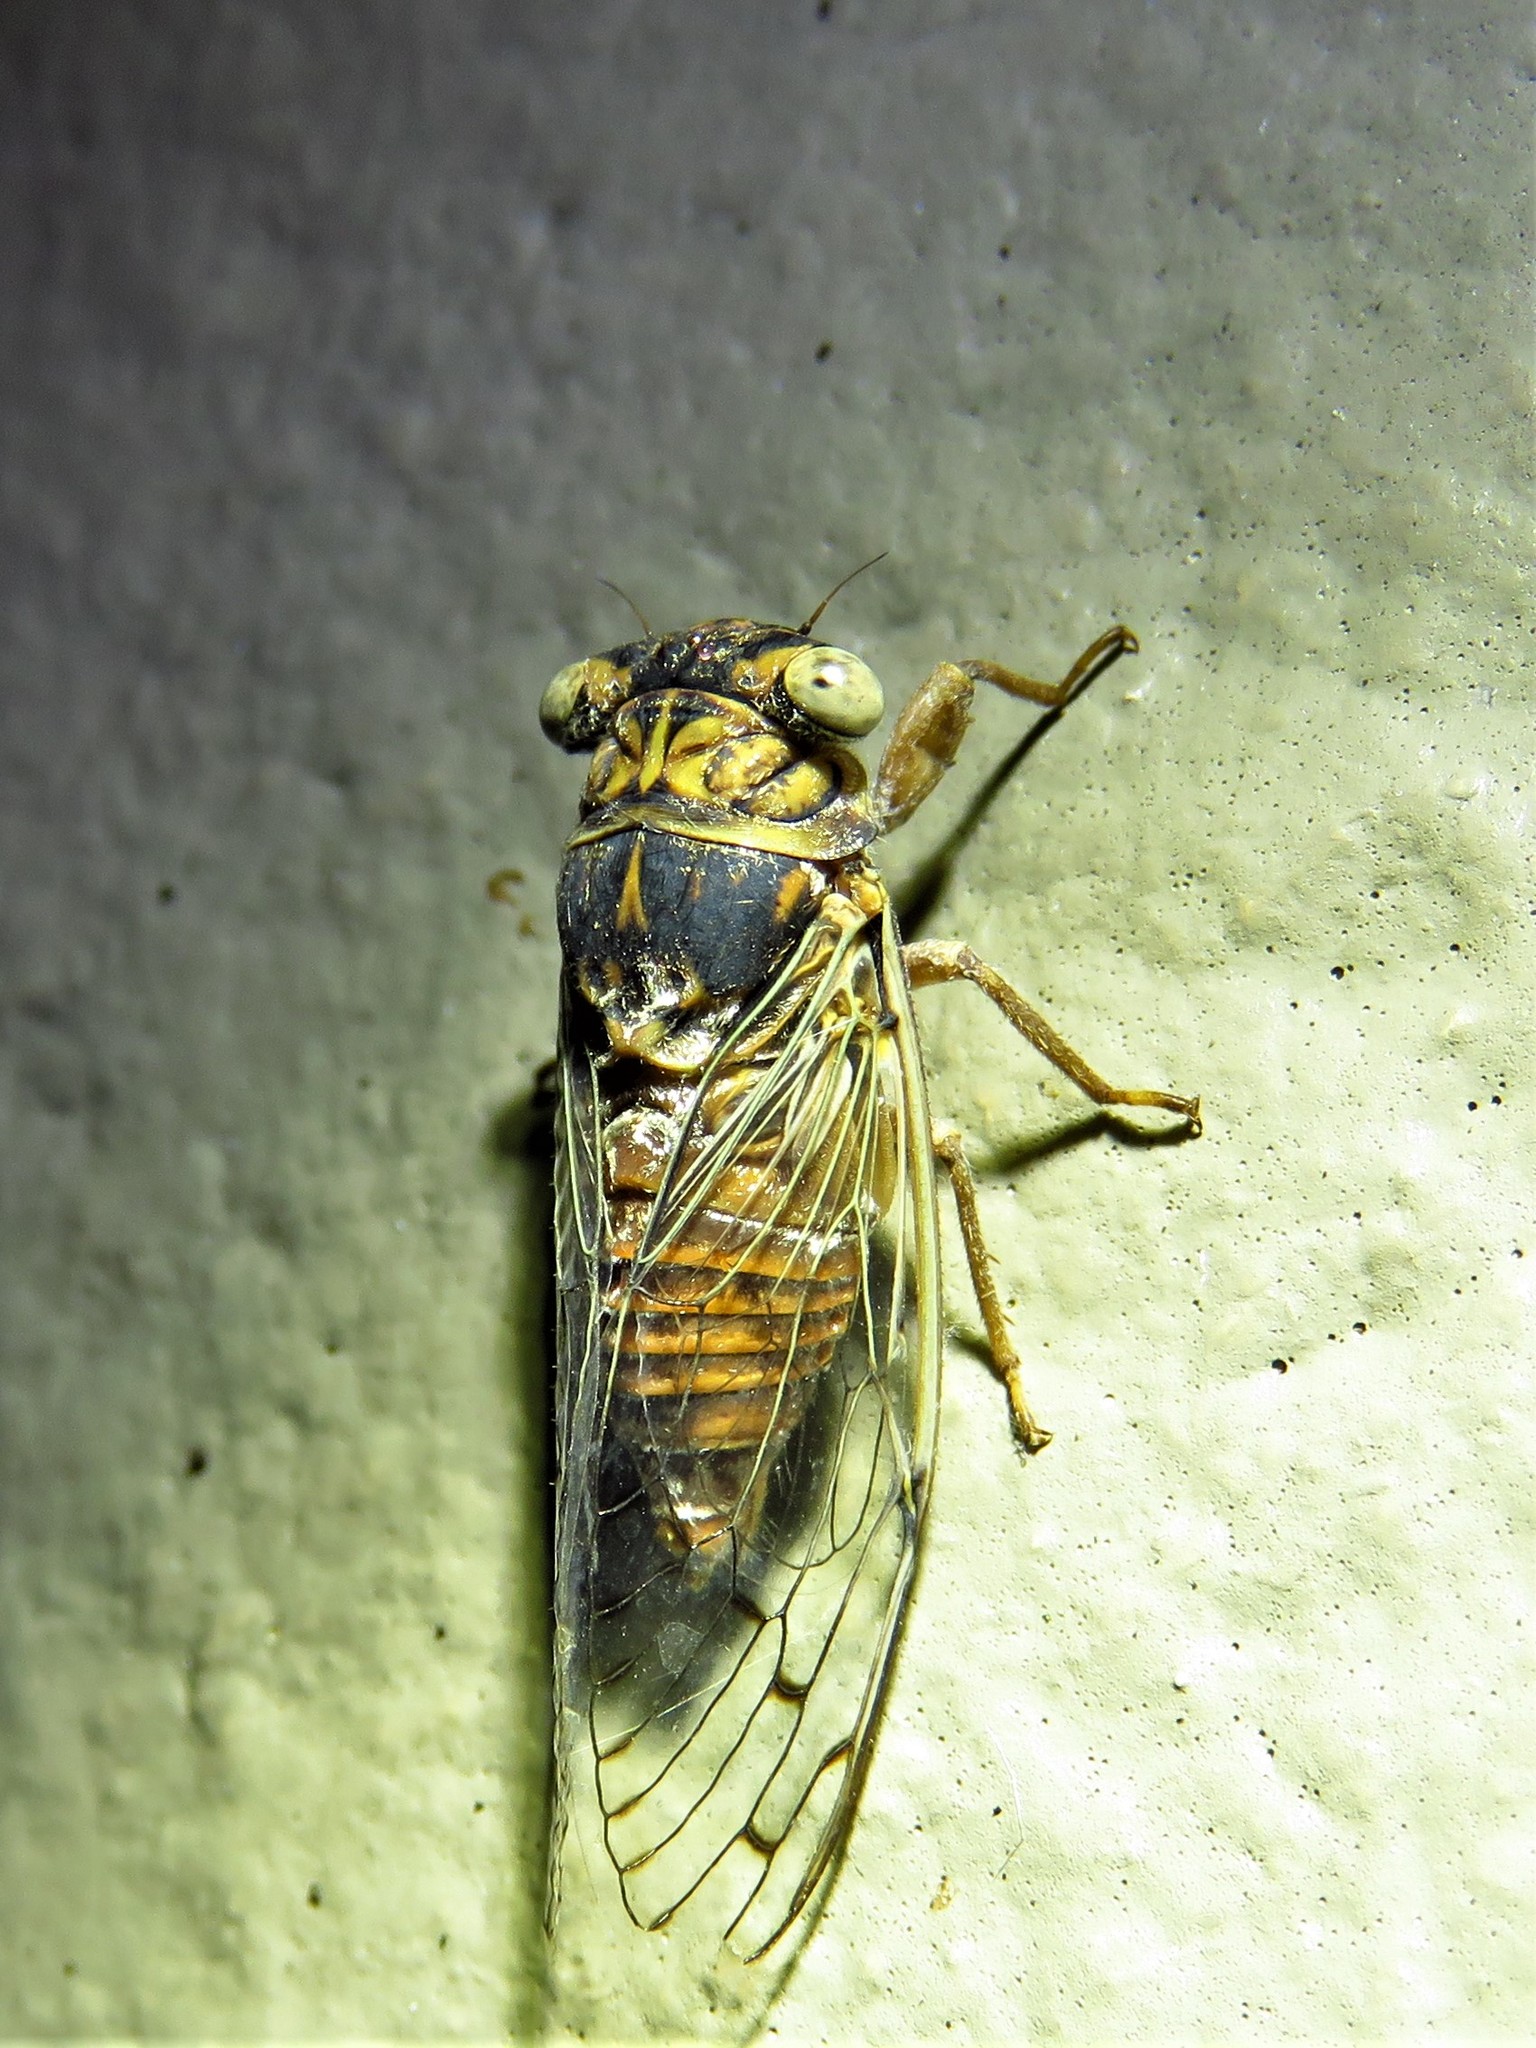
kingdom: Animalia
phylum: Arthropoda
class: Insecta
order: Hemiptera
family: Cicadidae
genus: Pacarina
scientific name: Pacarina puella
